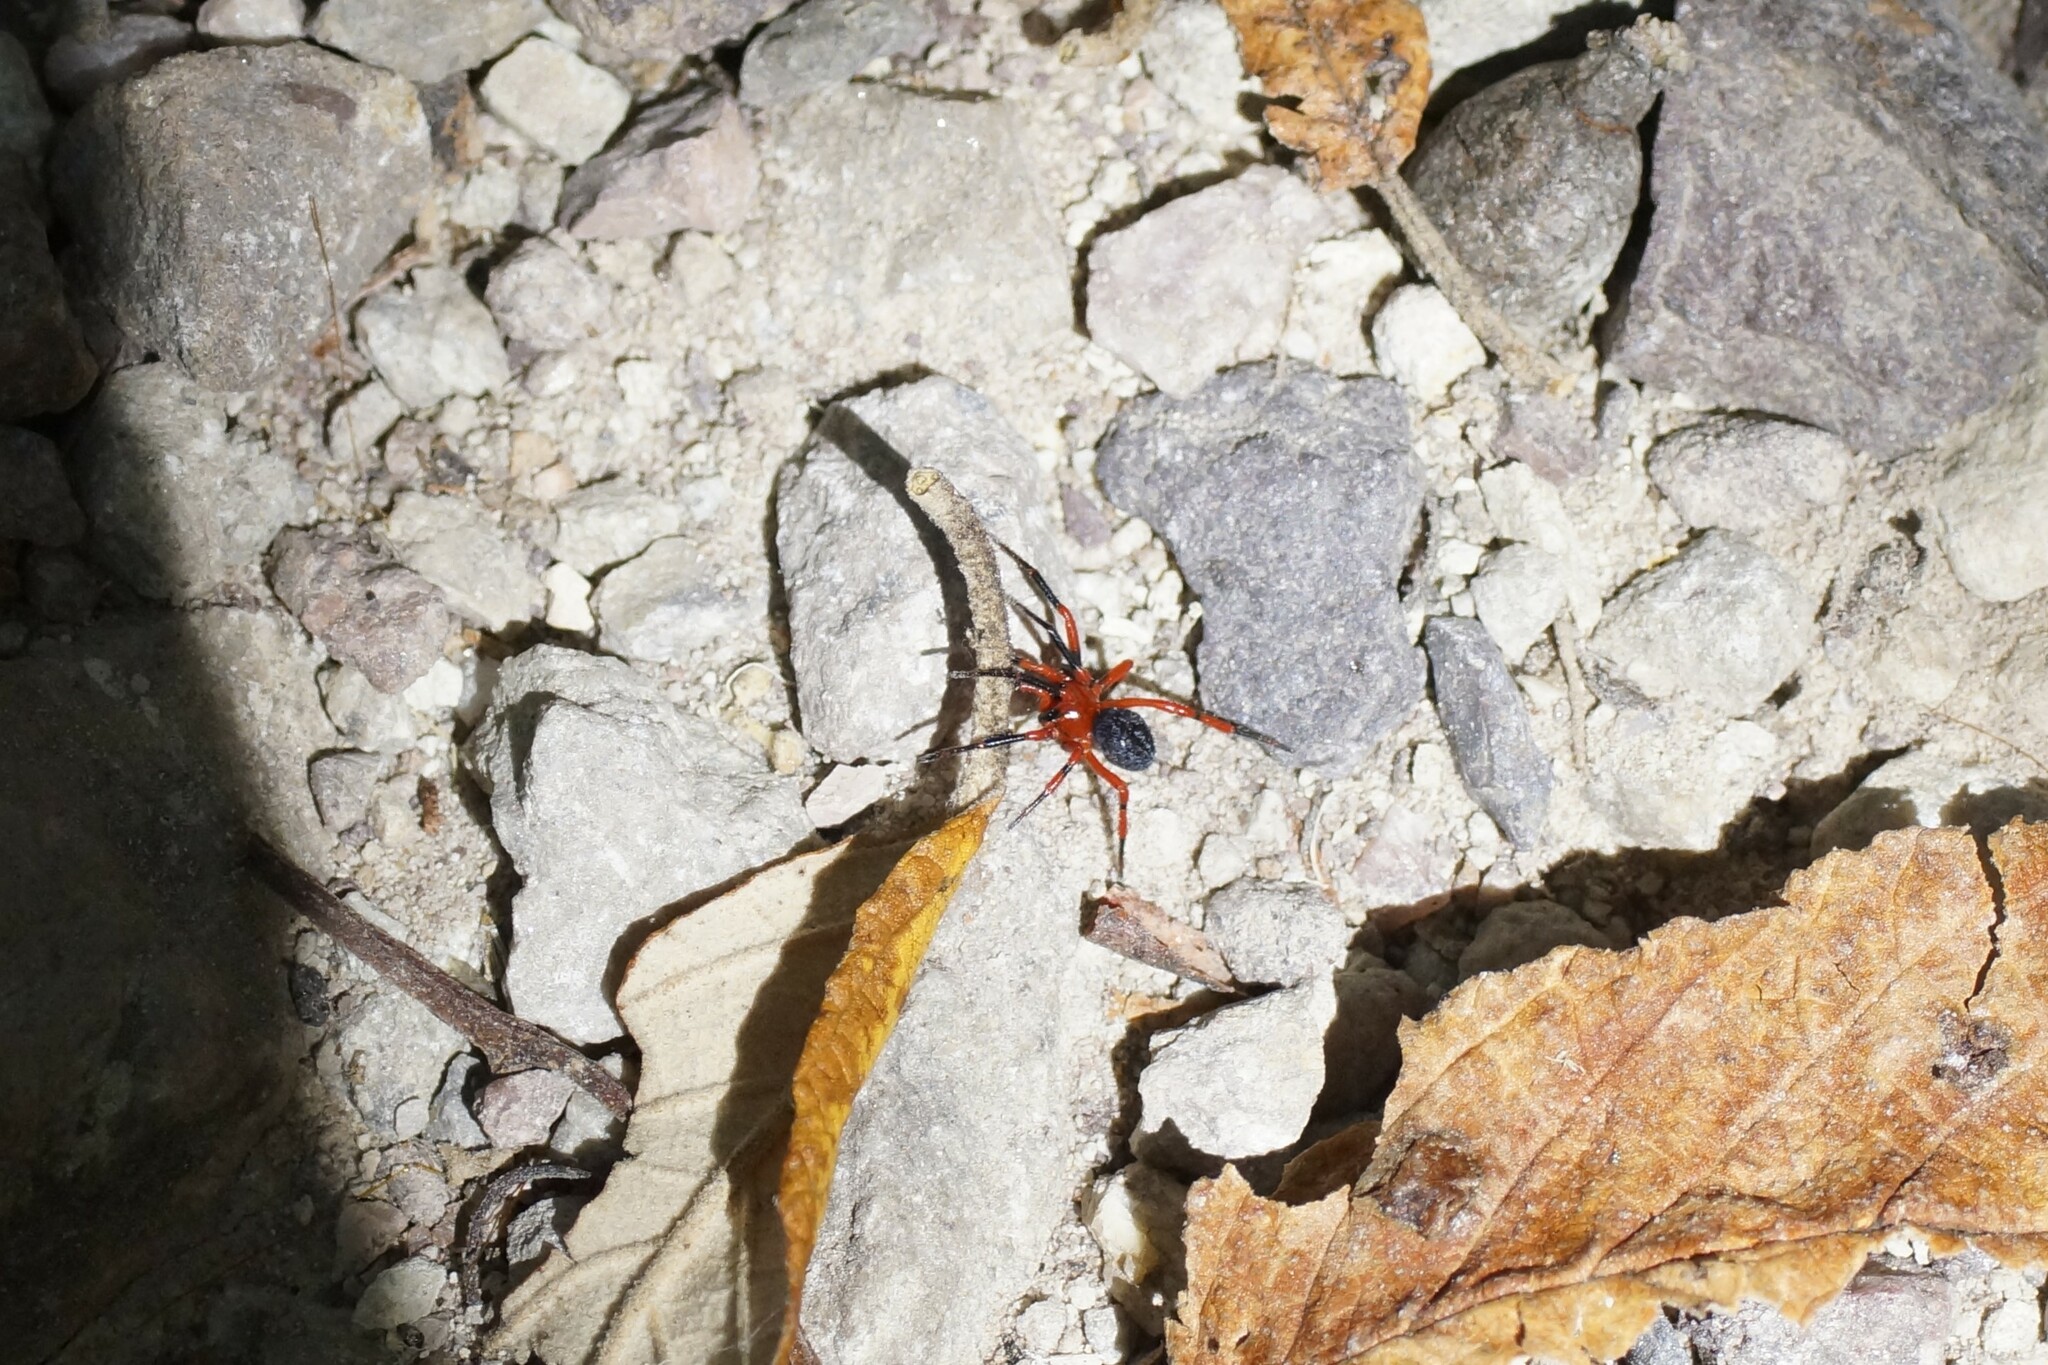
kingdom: Animalia
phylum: Arthropoda
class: Arachnida
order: Araneae
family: Nicodamidae
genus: Nicodamus
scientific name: Nicodamus peregrinus
